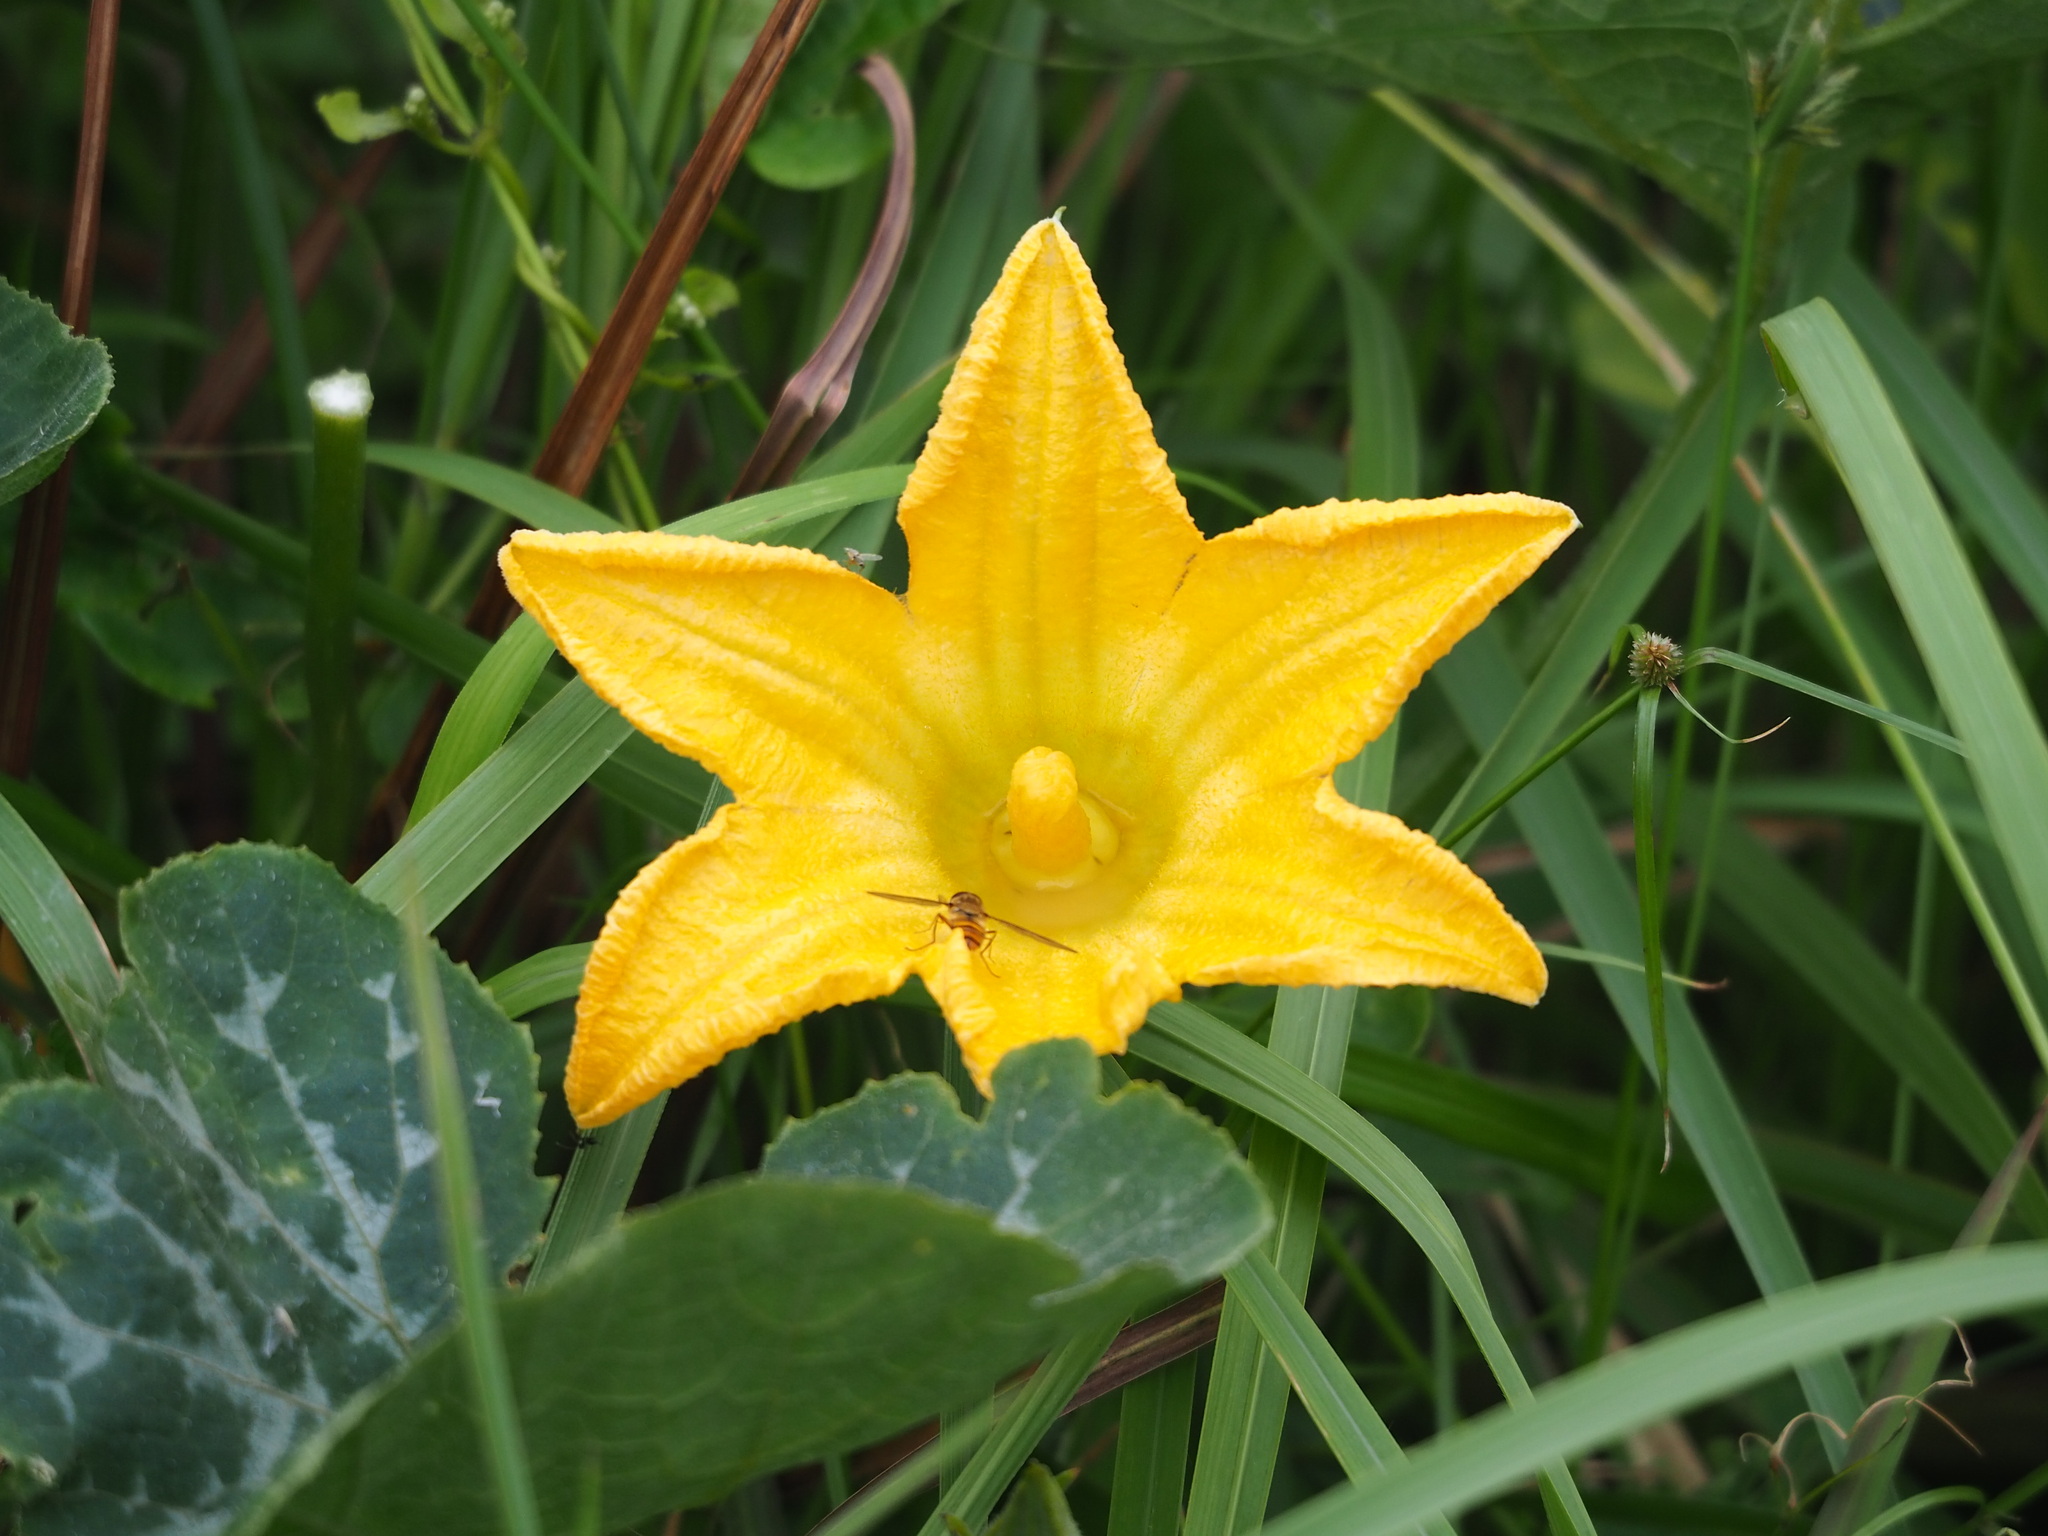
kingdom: Plantae
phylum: Tracheophyta
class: Magnoliopsida
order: Cucurbitales
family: Cucurbitaceae
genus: Cucurbita
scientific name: Cucurbita moschata
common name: Squash / pumpkin
